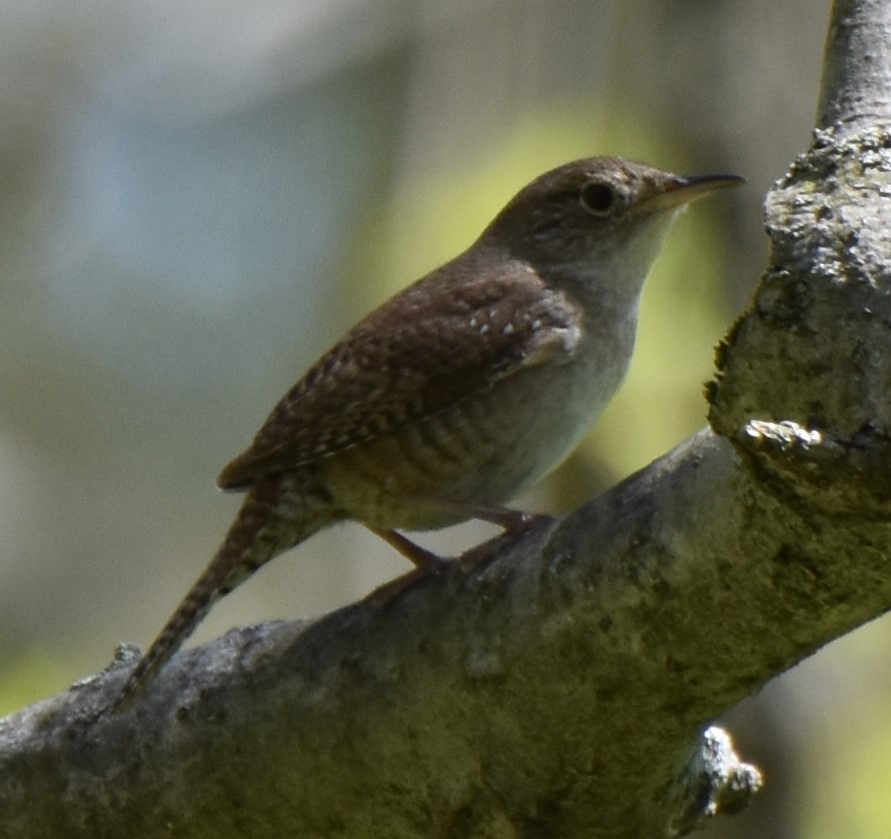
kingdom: Animalia
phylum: Chordata
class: Aves
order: Passeriformes
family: Troglodytidae
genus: Troglodytes
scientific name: Troglodytes aedon
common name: House wren
